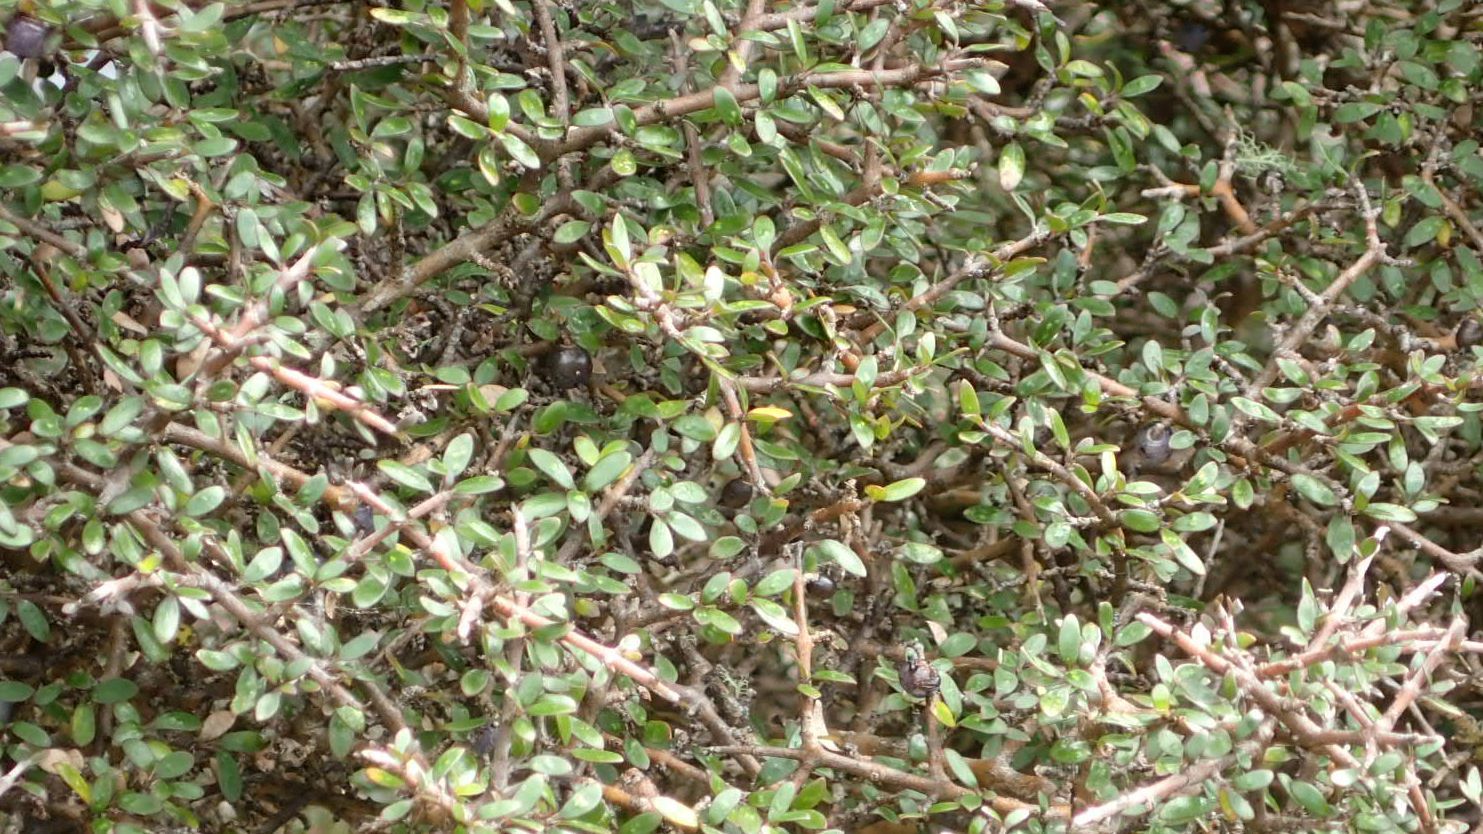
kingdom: Plantae
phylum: Tracheophyta
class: Magnoliopsida
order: Gentianales
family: Rubiaceae
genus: Coprosma
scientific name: Coprosma propinqua
